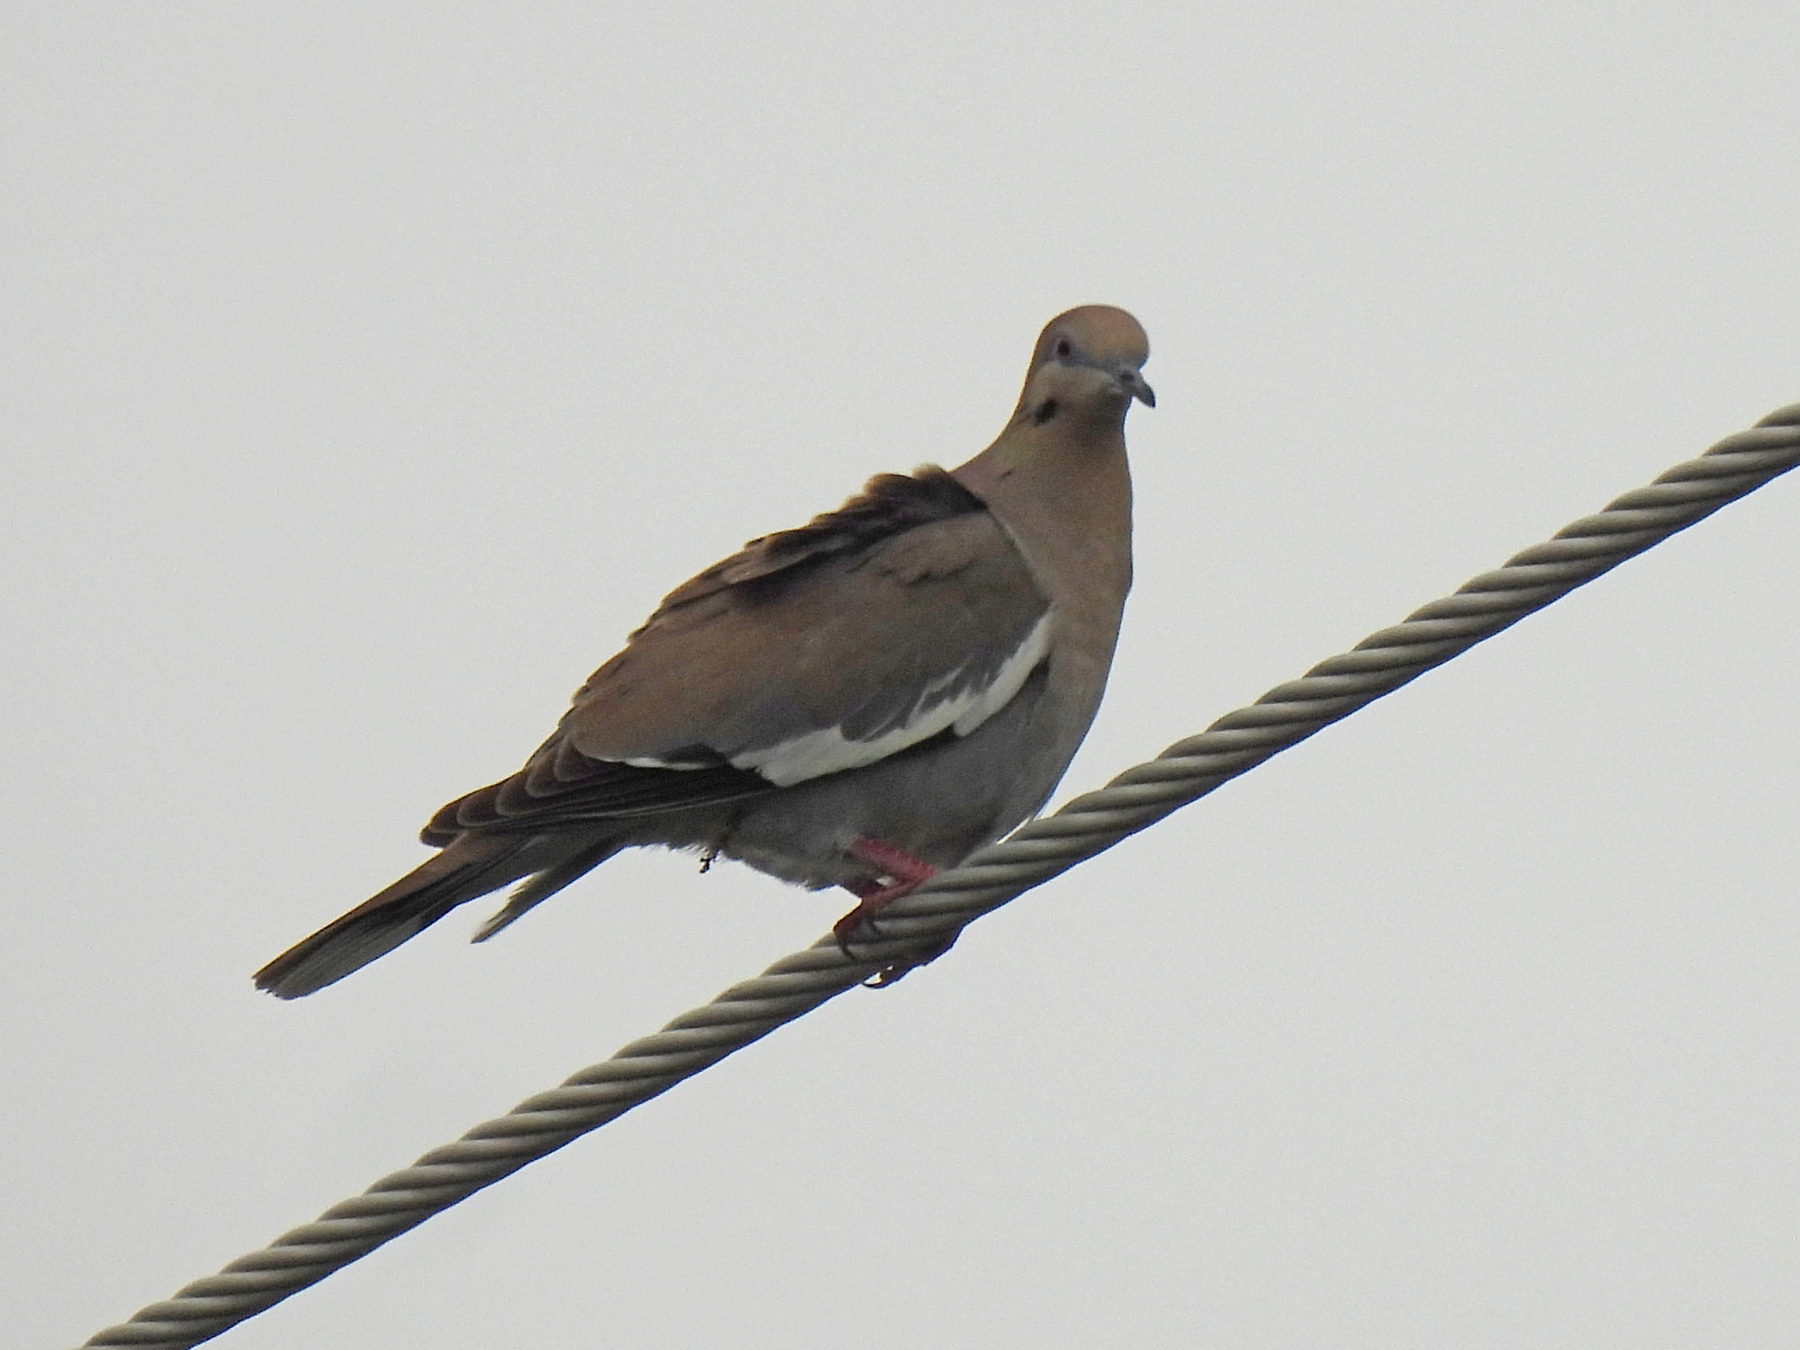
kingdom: Animalia
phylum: Chordata
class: Aves
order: Columbiformes
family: Columbidae
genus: Zenaida
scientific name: Zenaida asiatica
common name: White-winged dove
